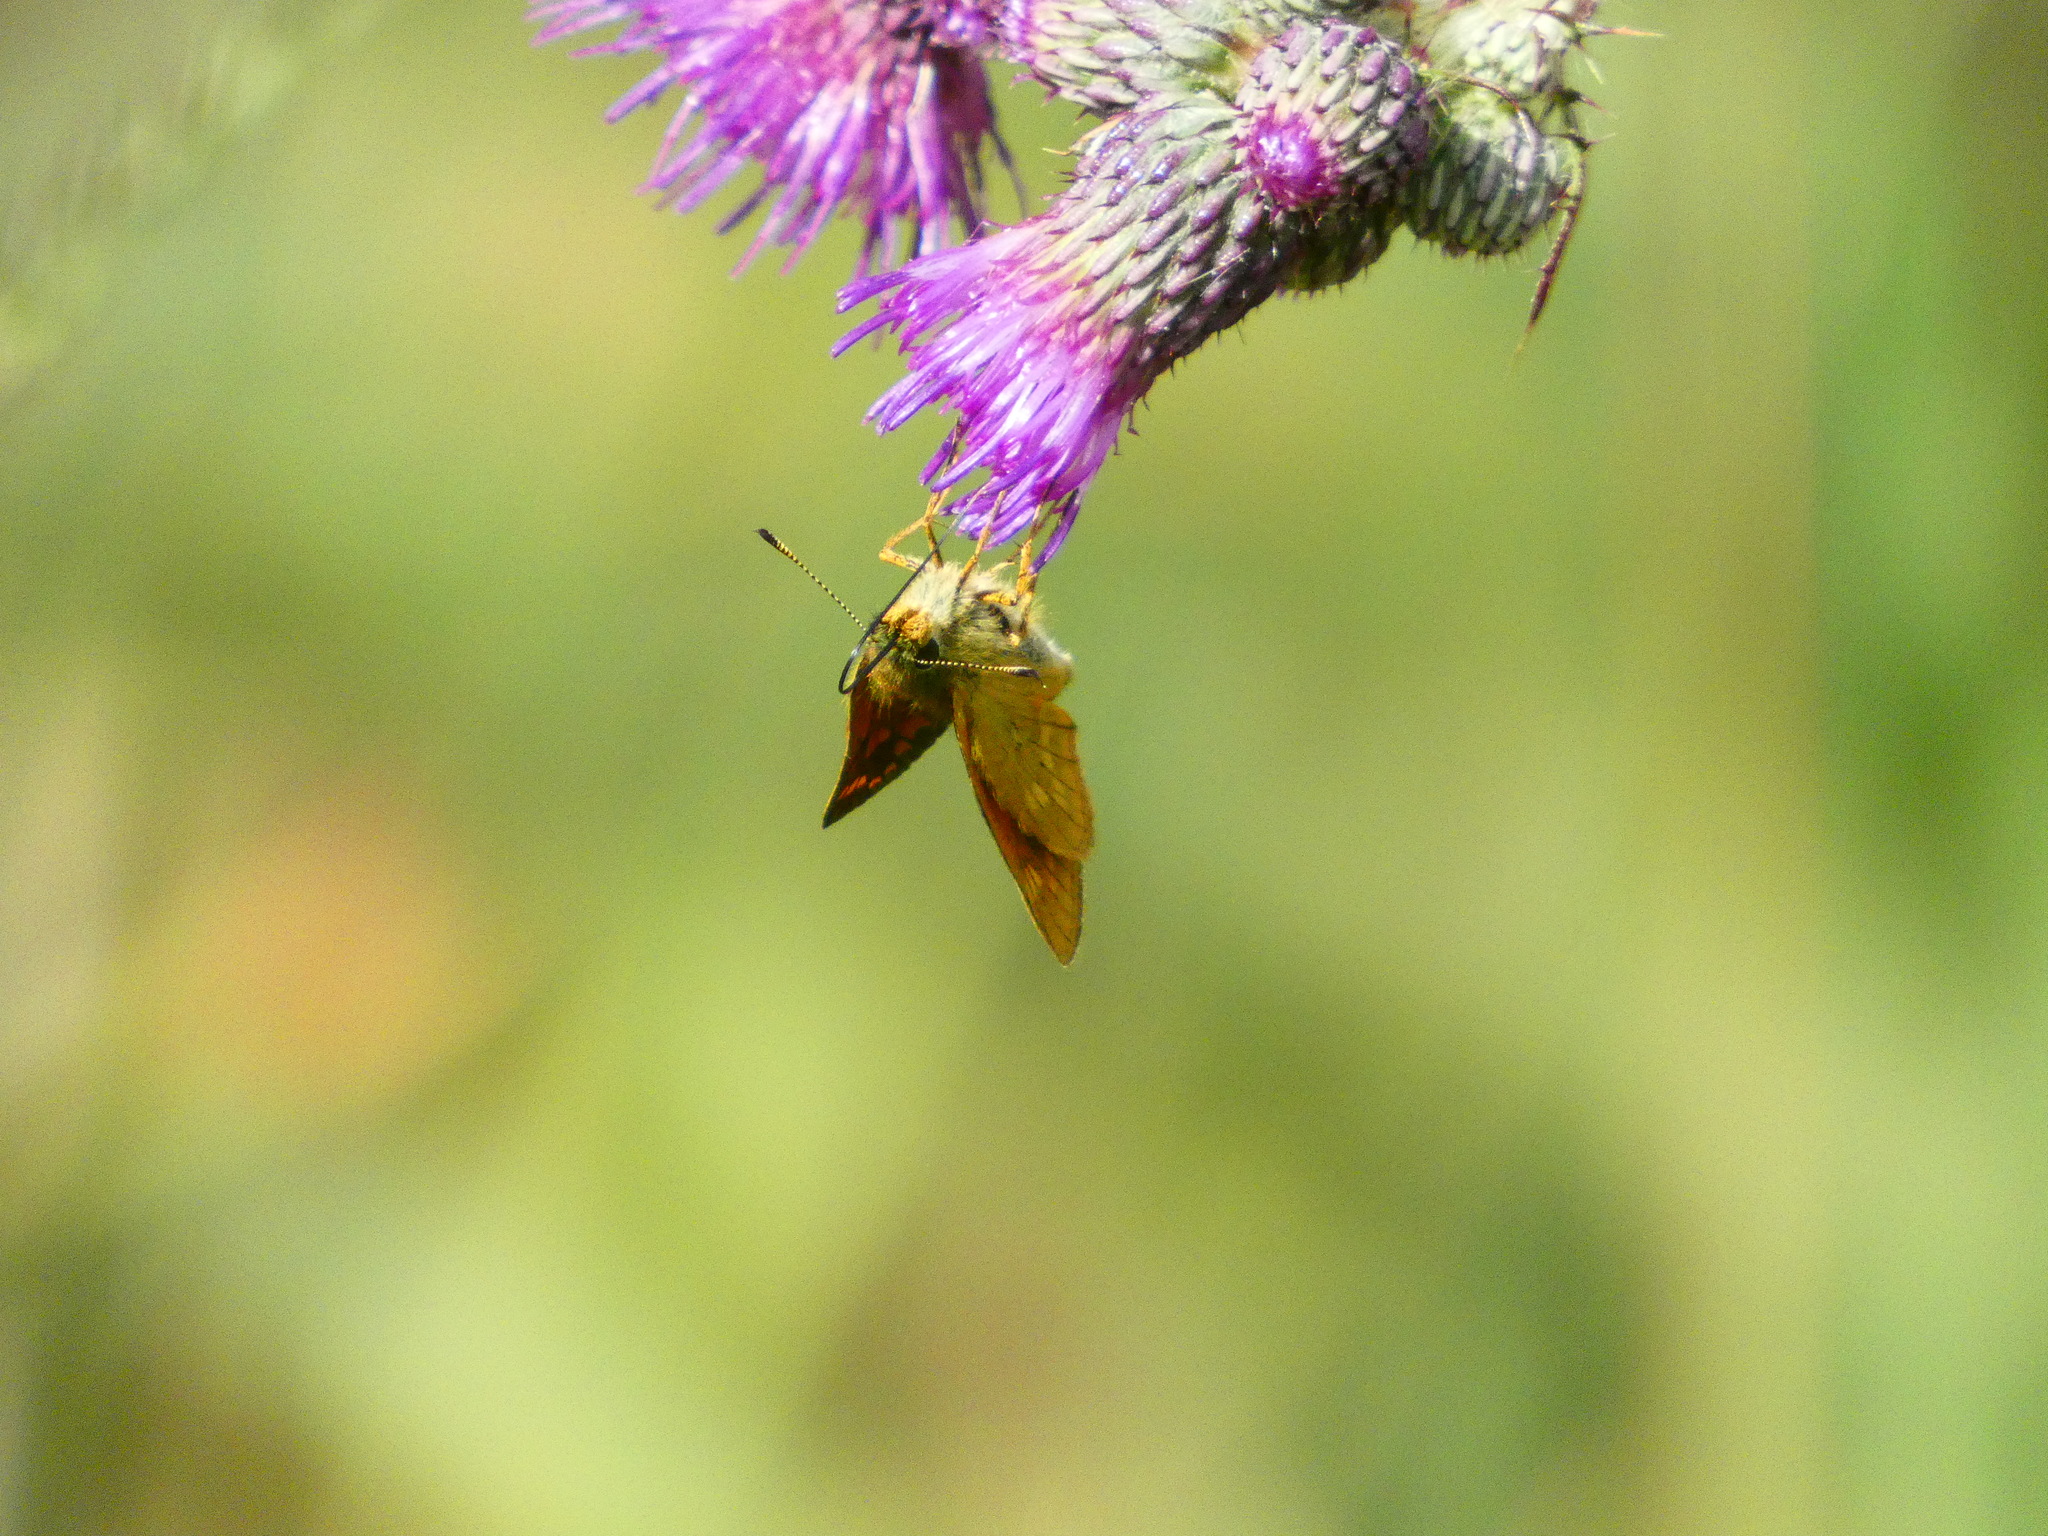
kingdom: Animalia
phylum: Arthropoda
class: Insecta
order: Lepidoptera
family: Hesperiidae
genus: Ochlodes
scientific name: Ochlodes venata
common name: Large skipper
